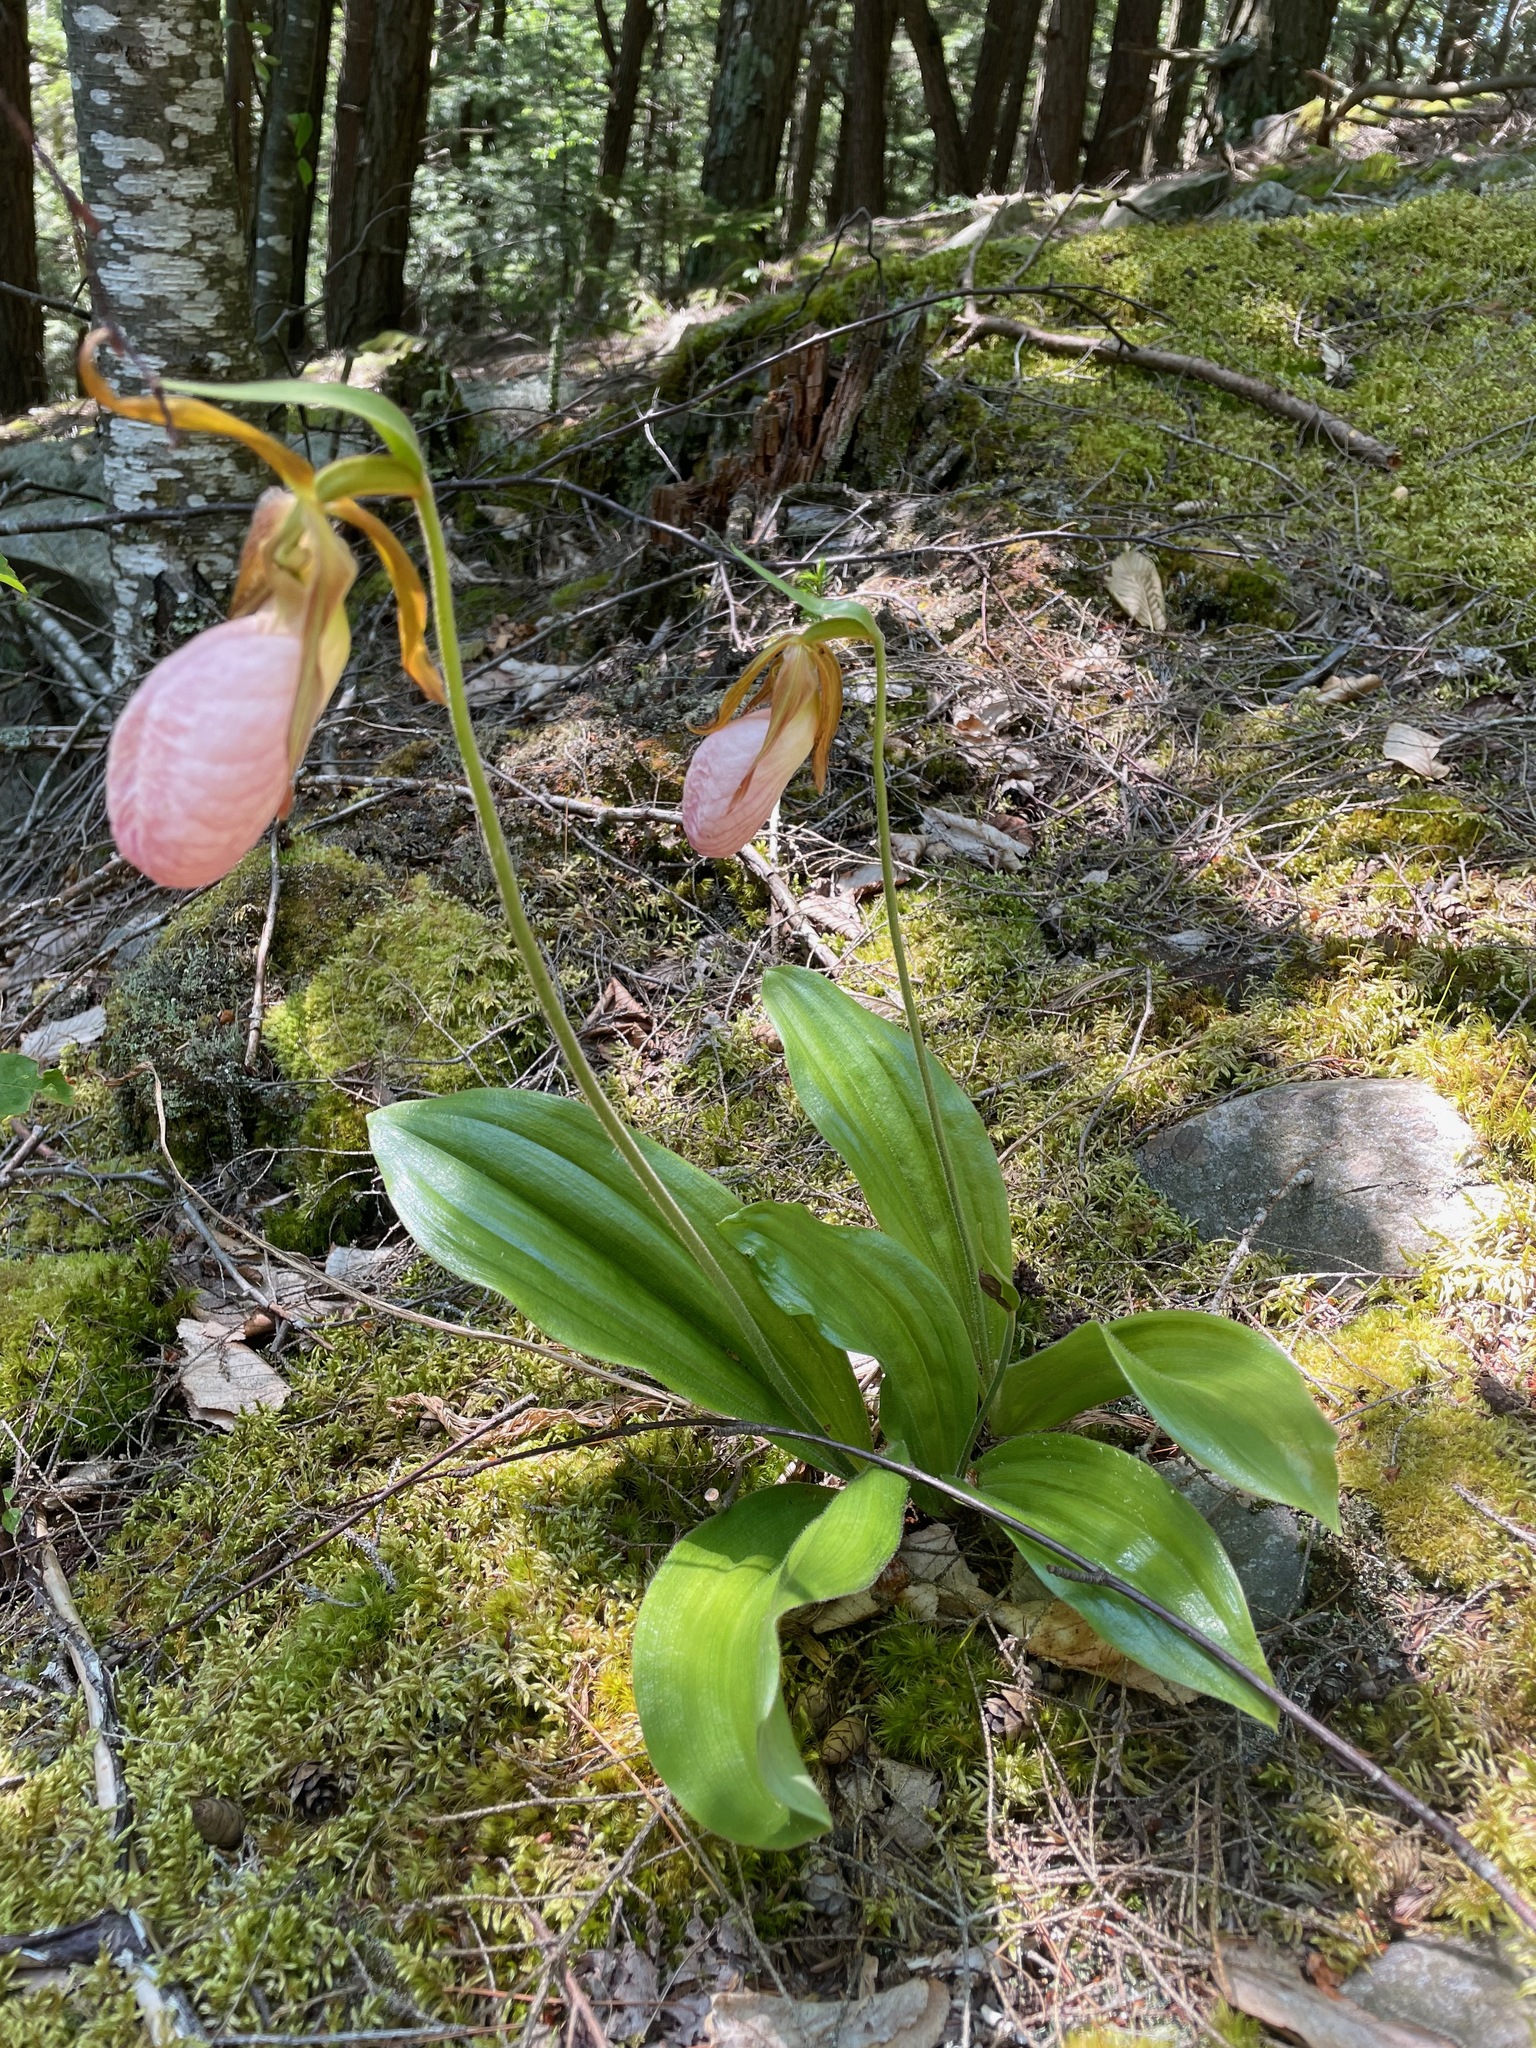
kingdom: Plantae
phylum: Tracheophyta
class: Liliopsida
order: Asparagales
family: Orchidaceae
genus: Cypripedium
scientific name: Cypripedium acaule
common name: Pink lady's-slipper
